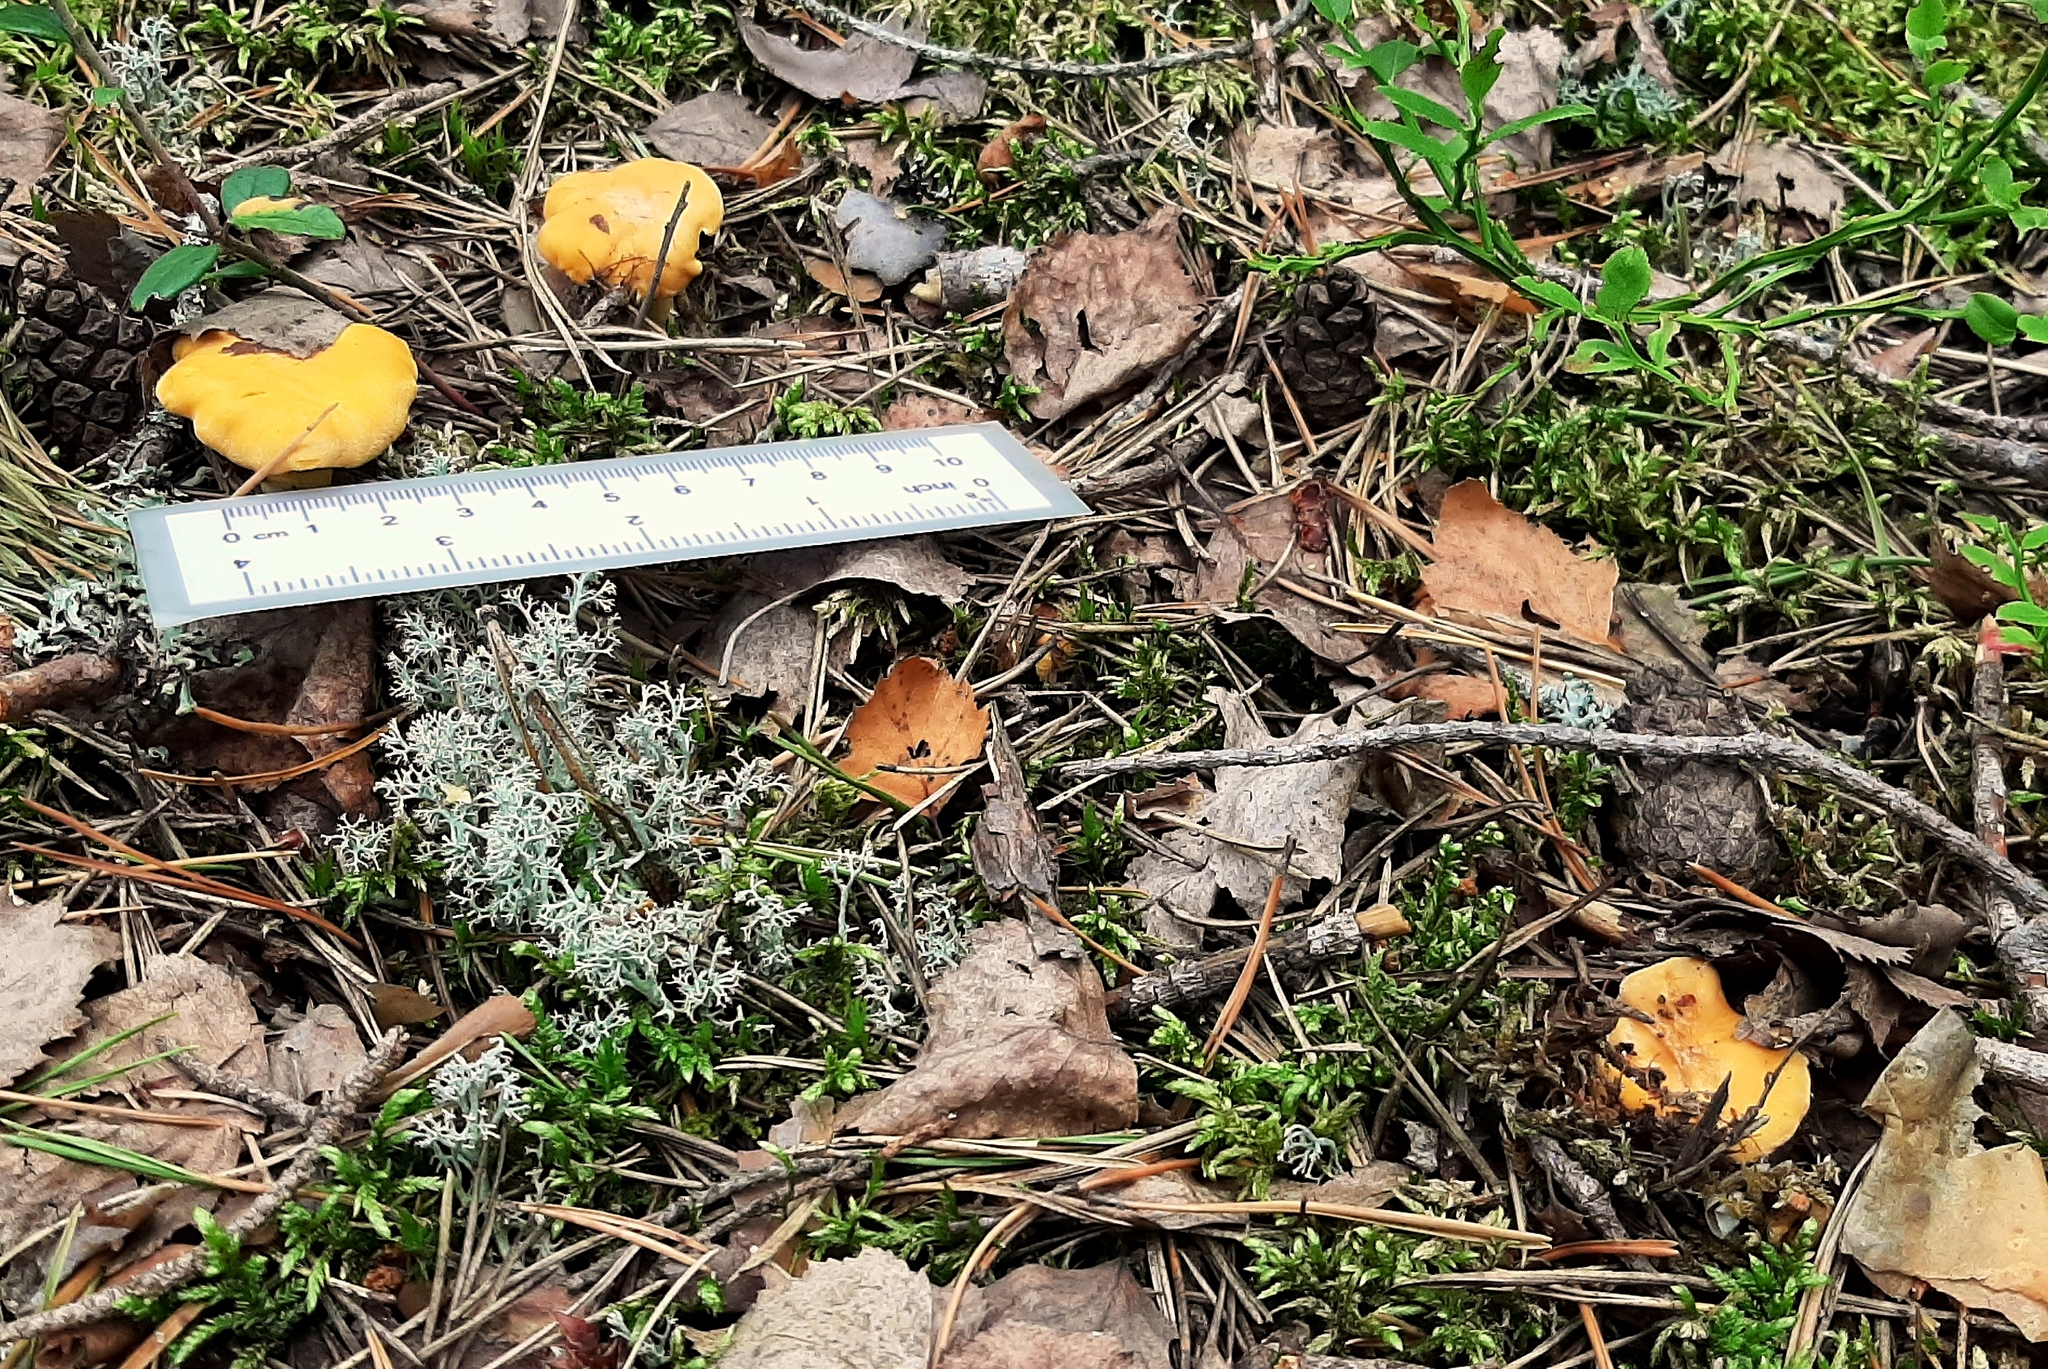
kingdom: Fungi
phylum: Basidiomycota
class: Agaricomycetes
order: Cantharellales
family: Hydnaceae
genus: Cantharellus
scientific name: Cantharellus cibarius
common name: Chanterelle
